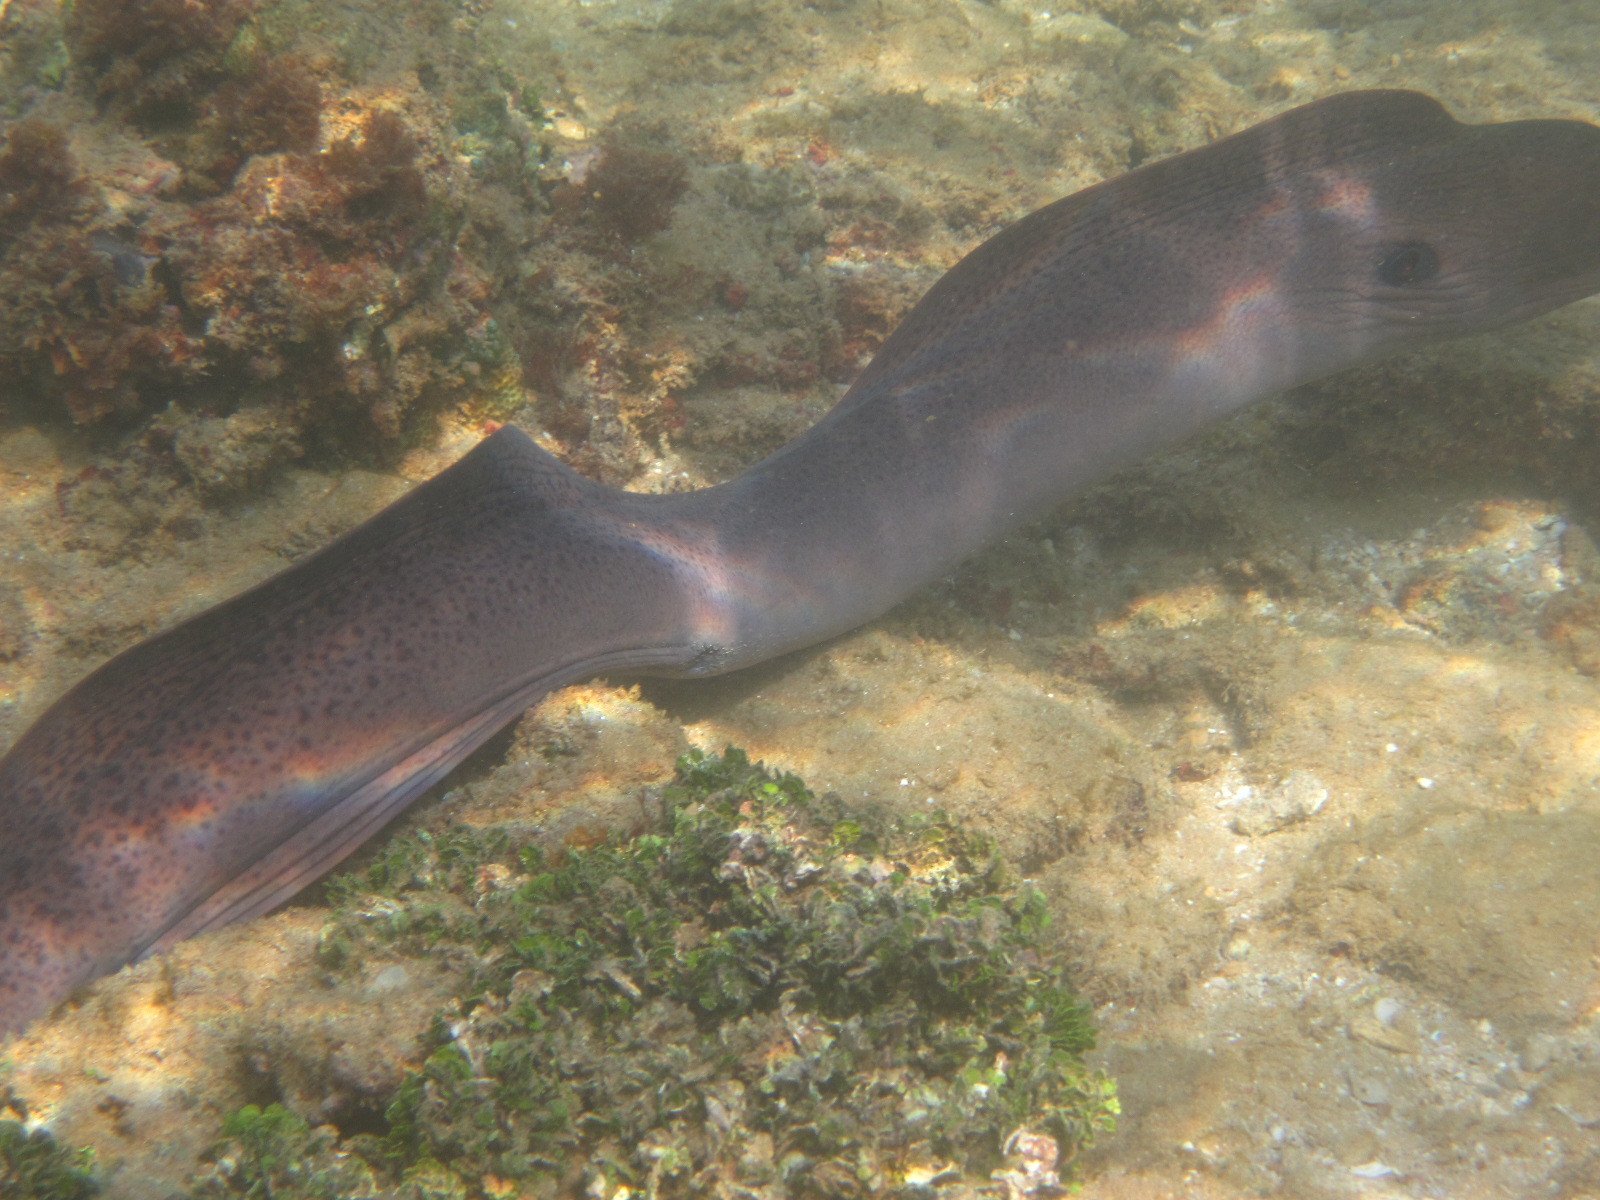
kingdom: Animalia
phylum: Chordata
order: Anguilliformes
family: Muraenidae
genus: Gymnothorax
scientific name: Gymnothorax javanicus
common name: Giant moray
